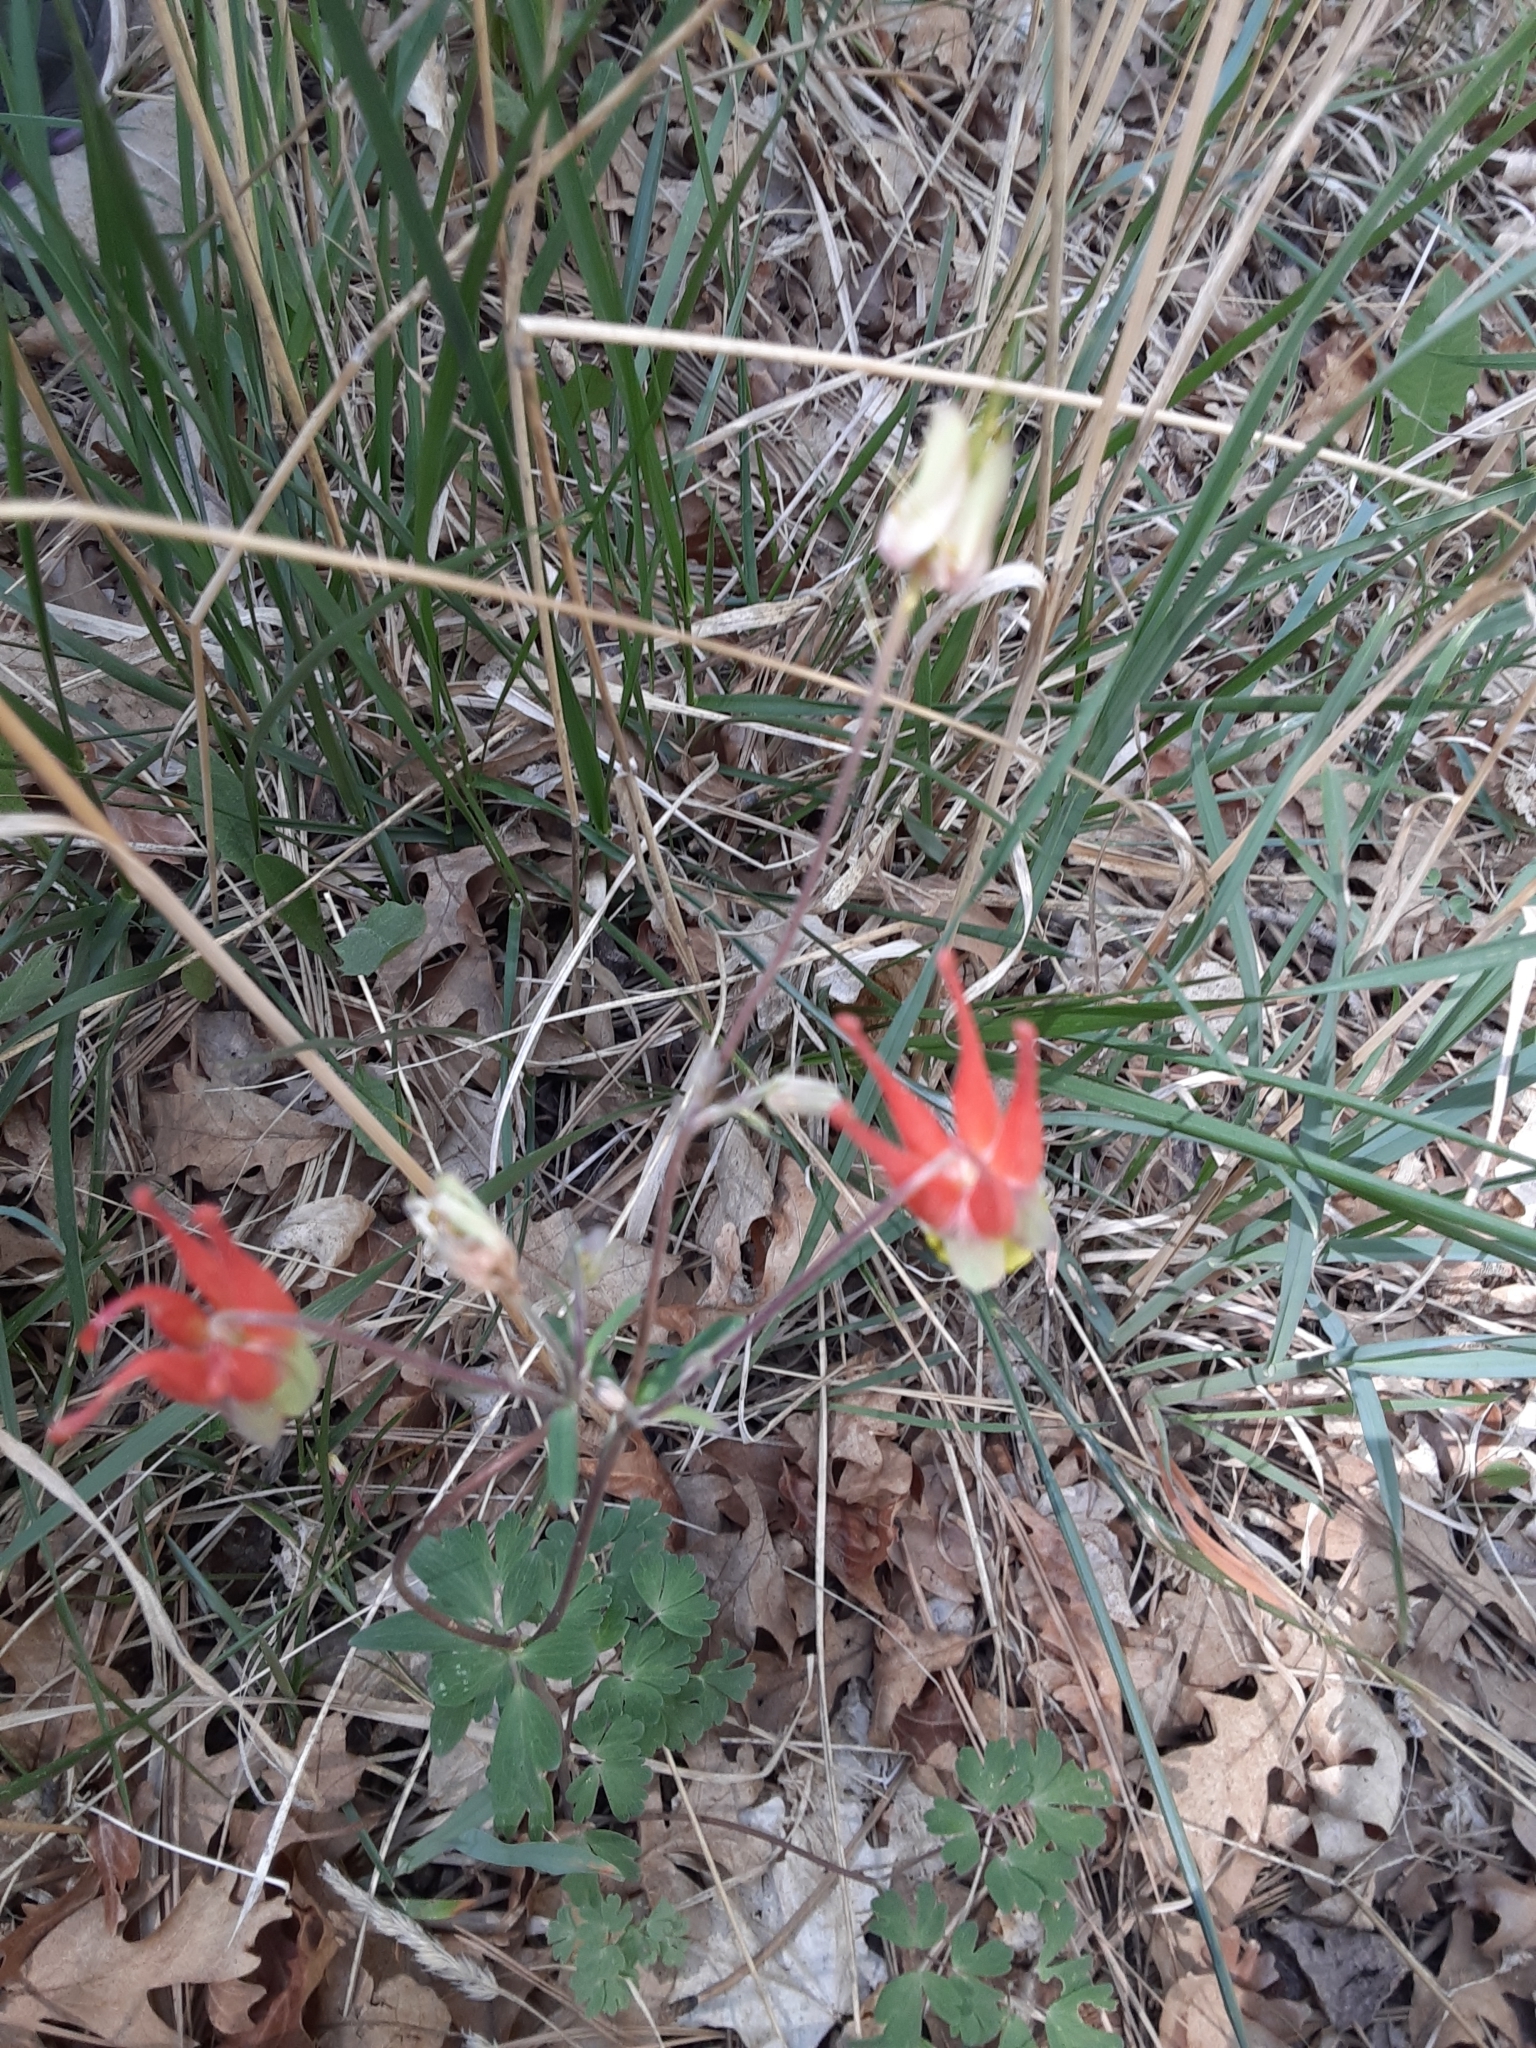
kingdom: Plantae
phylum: Tracheophyta
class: Magnoliopsida
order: Ranunculales
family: Ranunculaceae
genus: Aquilegia
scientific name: Aquilegia elegantula
